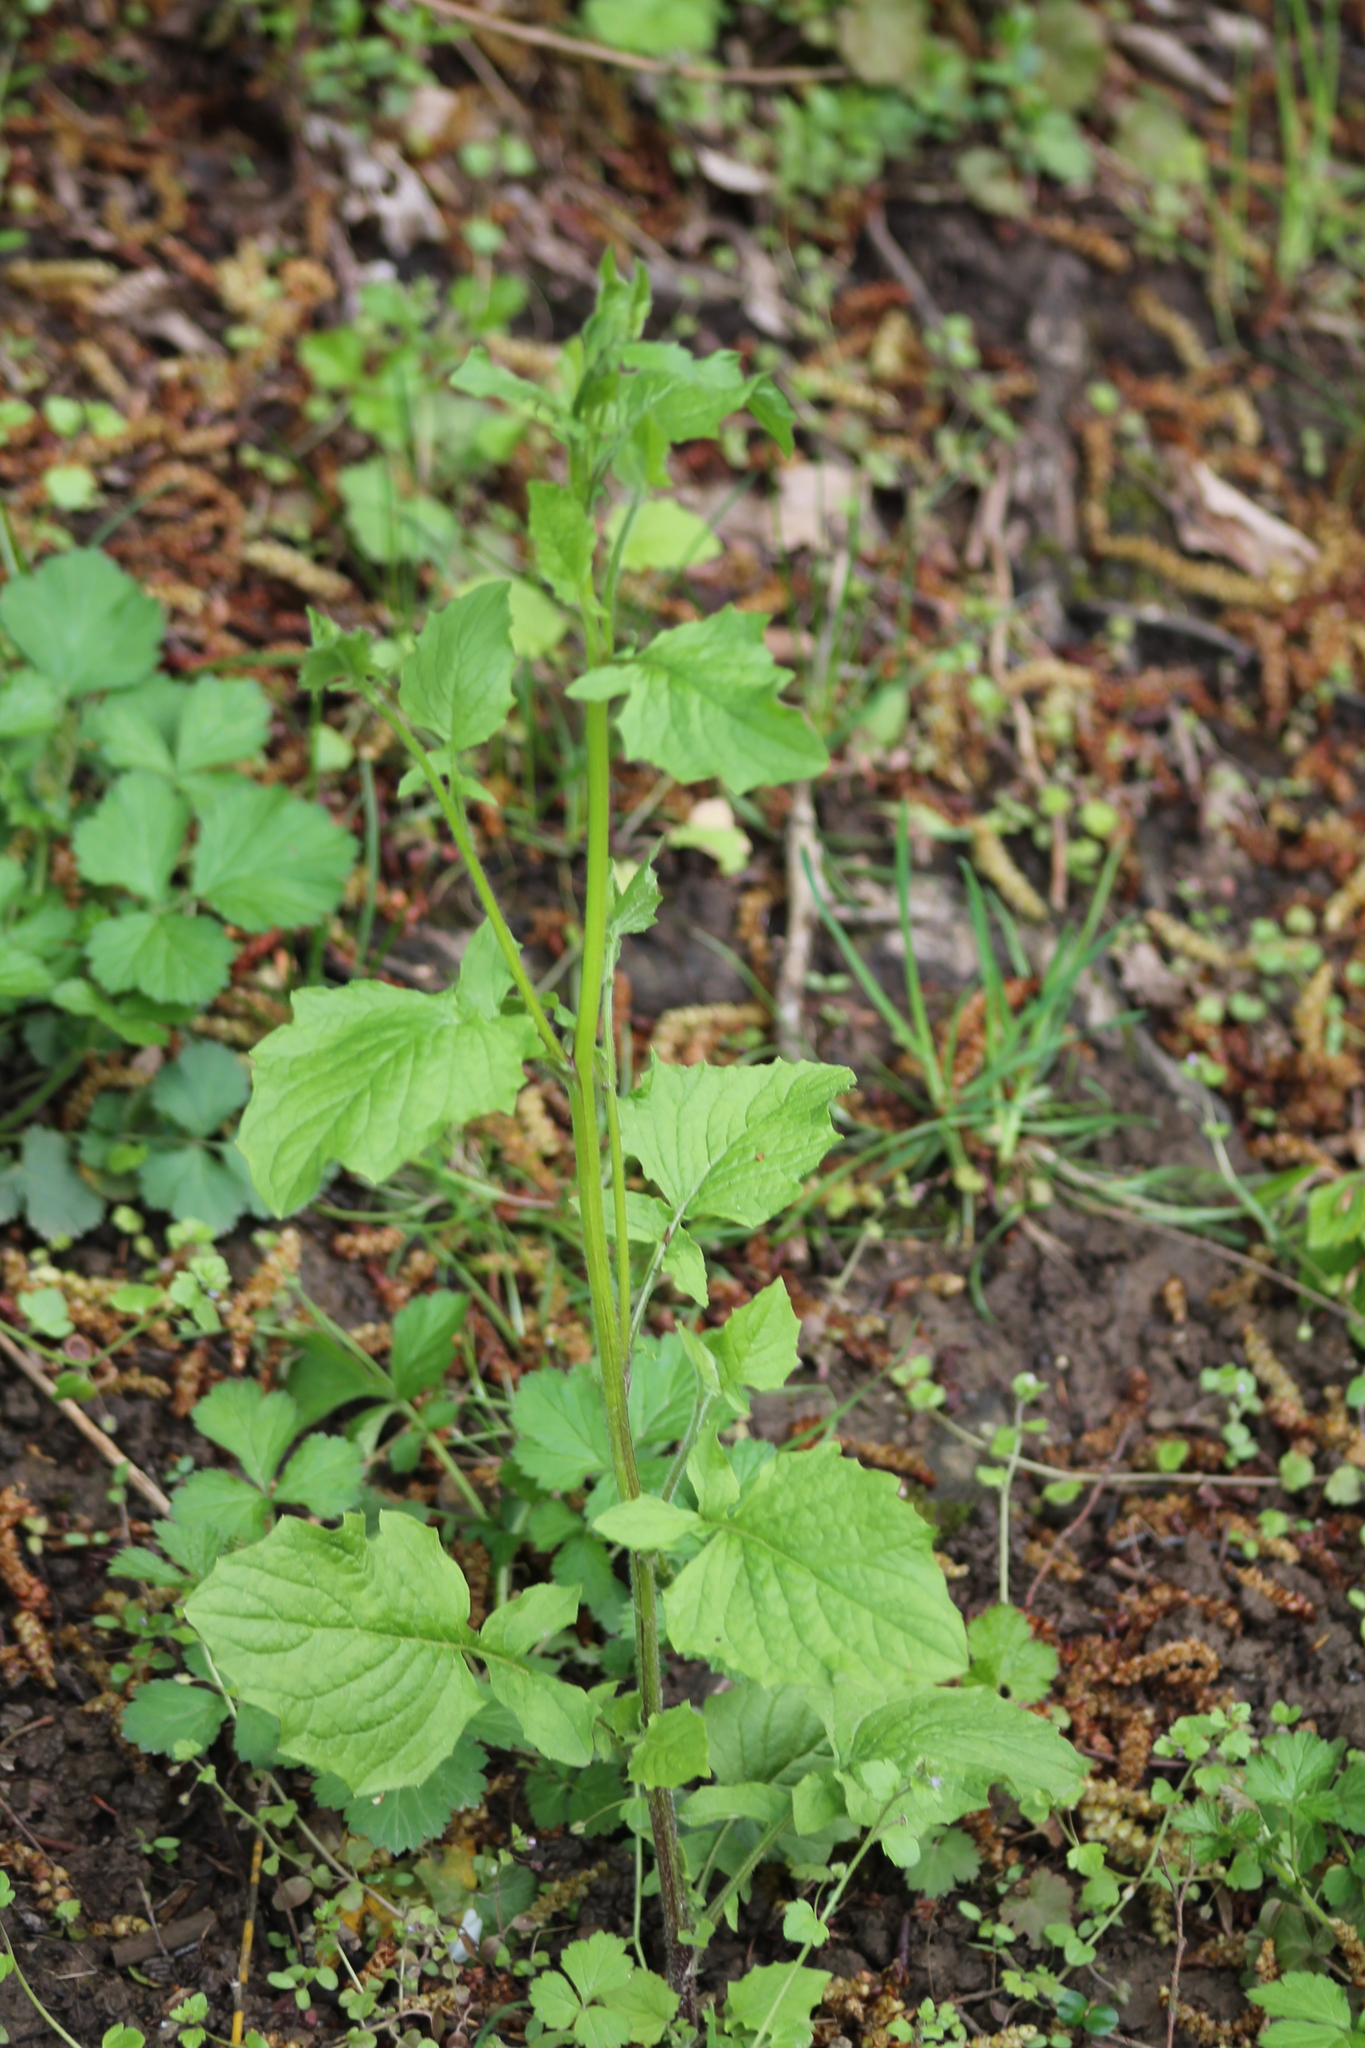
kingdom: Plantae
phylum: Tracheophyta
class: Magnoliopsida
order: Brassicales
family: Brassicaceae
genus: Alliaria
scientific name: Alliaria petiolata
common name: Garlic mustard
